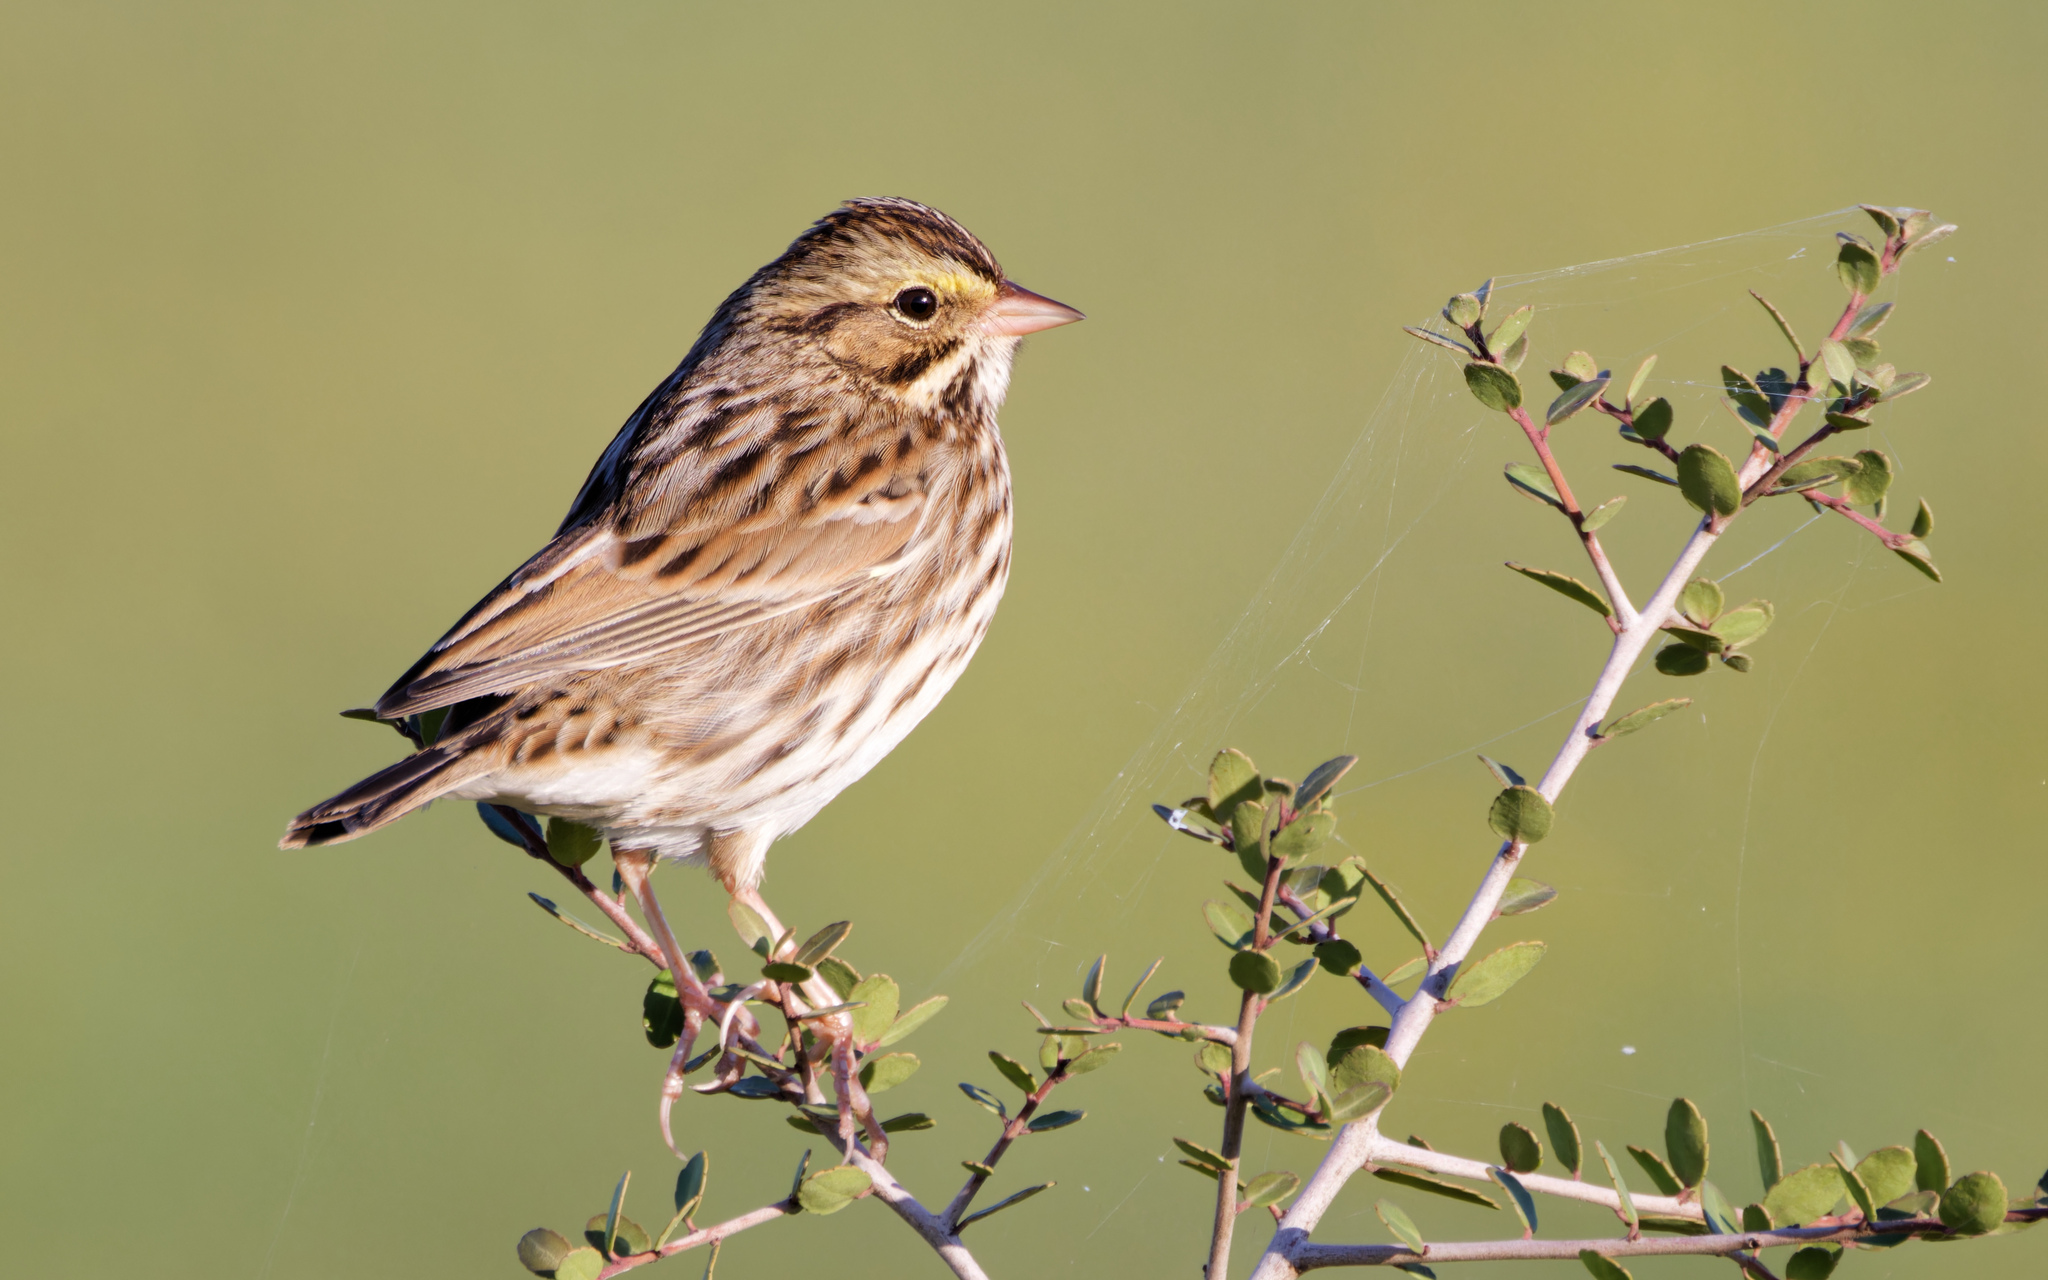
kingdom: Animalia
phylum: Chordata
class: Aves
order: Passeriformes
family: Passerellidae
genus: Passerculus
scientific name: Passerculus sandwichensis
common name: Savannah sparrow
